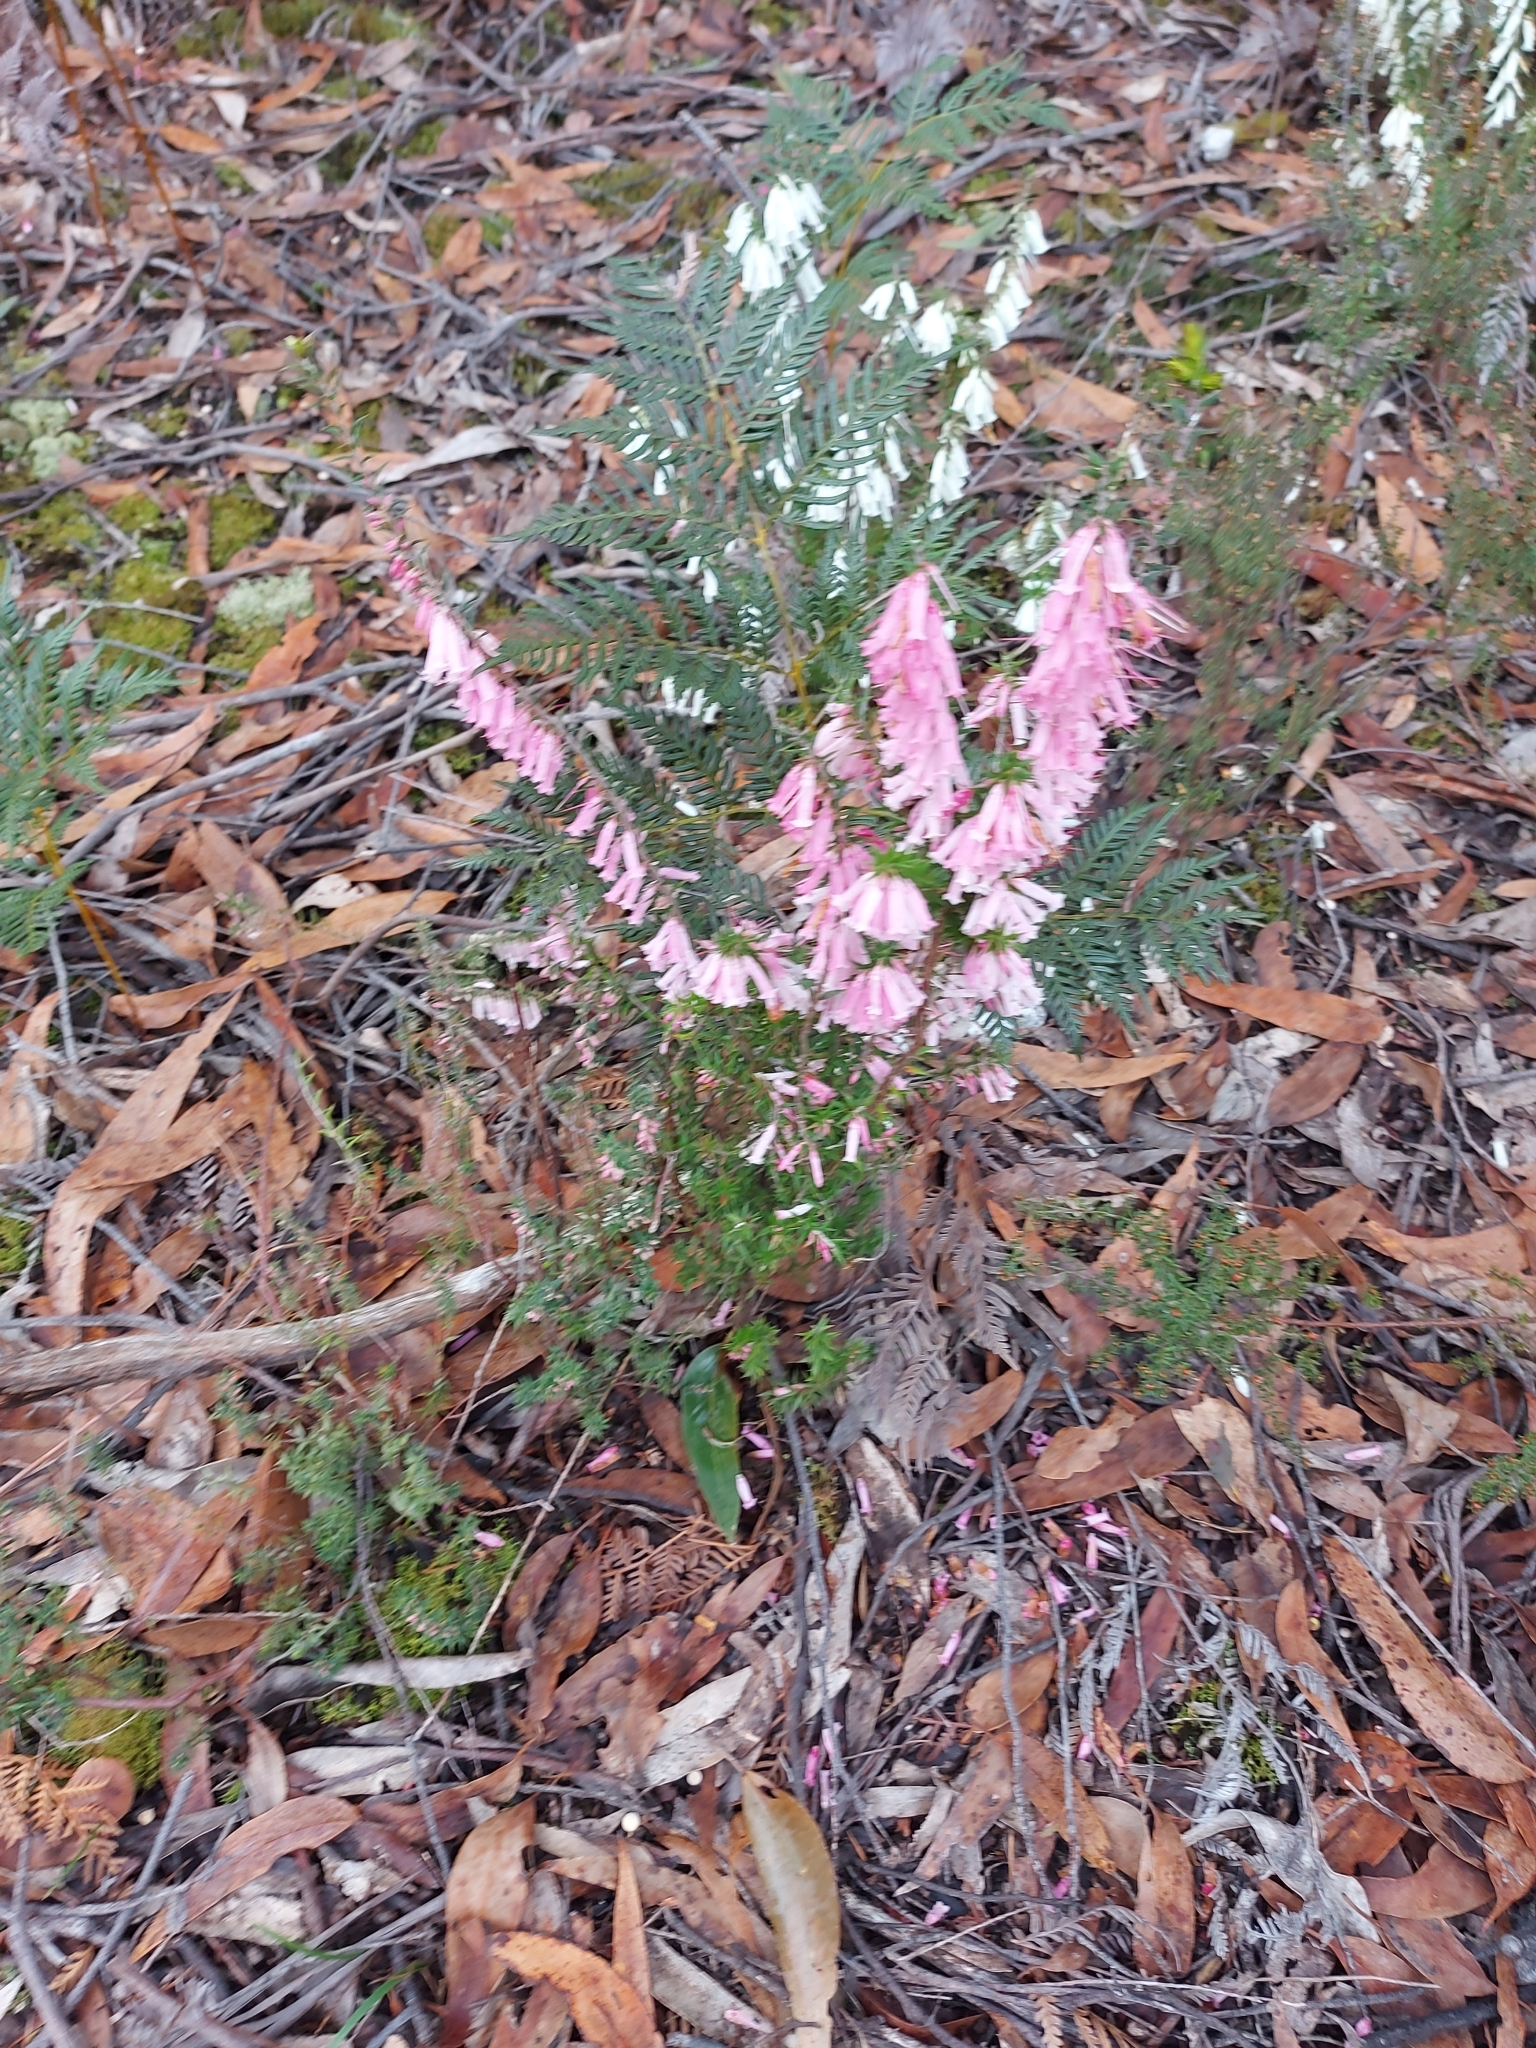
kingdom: Plantae
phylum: Tracheophyta
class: Magnoliopsida
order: Ericales
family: Ericaceae
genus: Epacris
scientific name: Epacris impressa
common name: Common-heath
